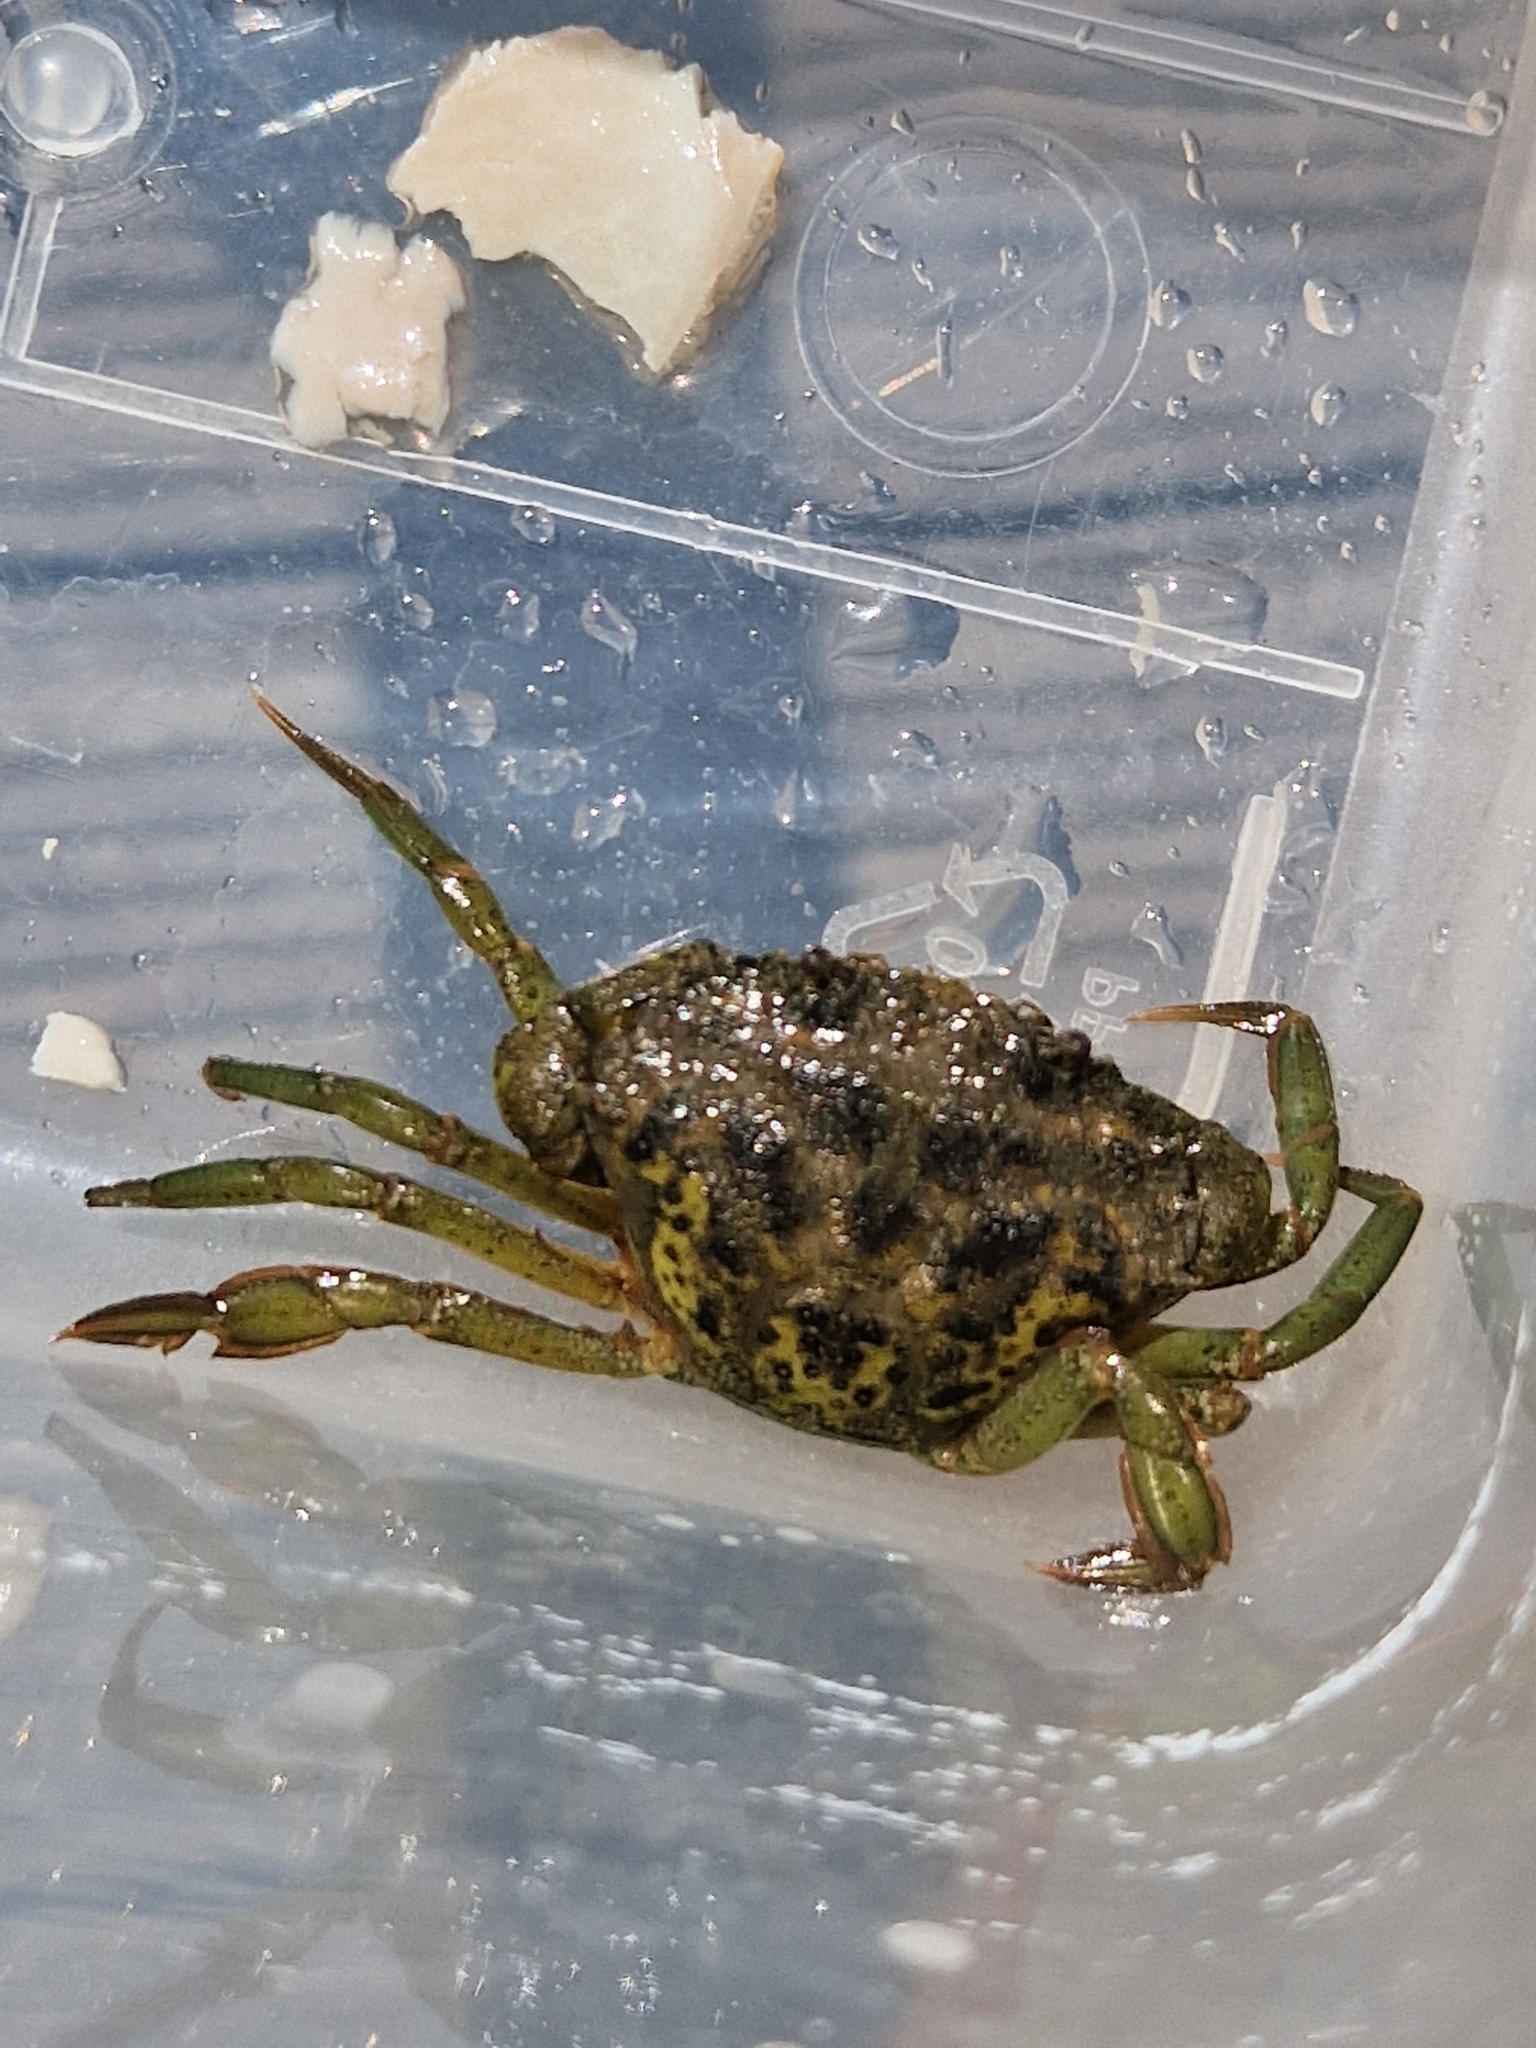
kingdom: Animalia
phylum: Arthropoda
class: Malacostraca
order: Decapoda
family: Carcinidae
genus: Carcinus
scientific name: Carcinus maenas
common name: European green crab
